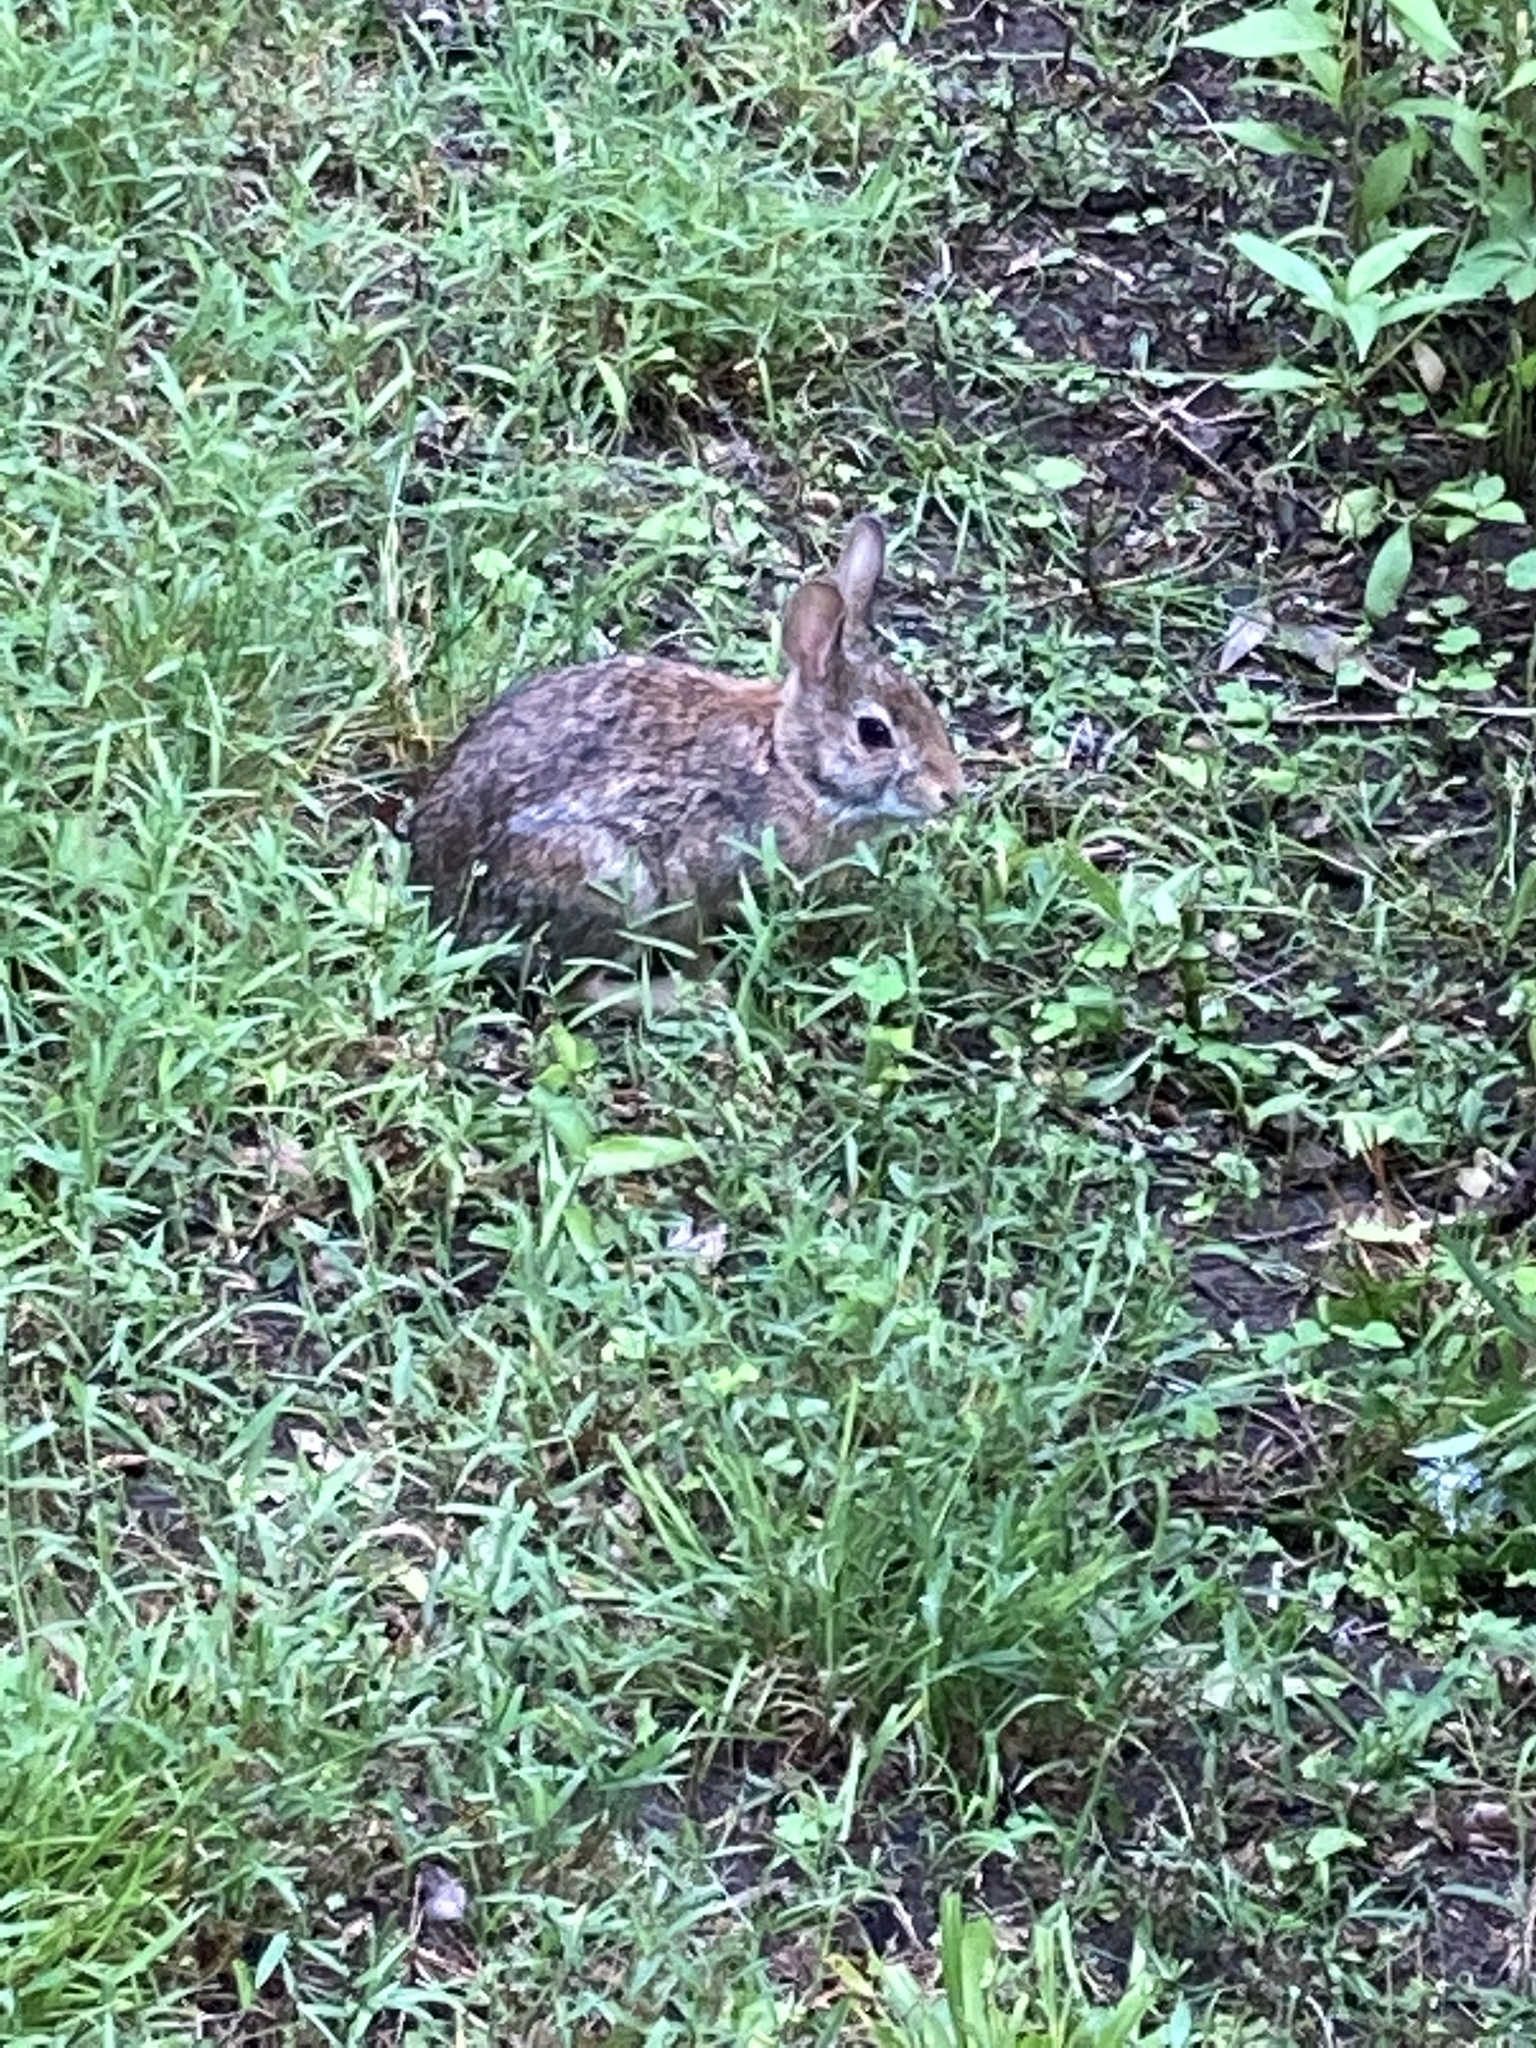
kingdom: Animalia
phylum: Chordata
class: Mammalia
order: Lagomorpha
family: Leporidae
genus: Sylvilagus
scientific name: Sylvilagus floridanus
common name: Eastern cottontail
